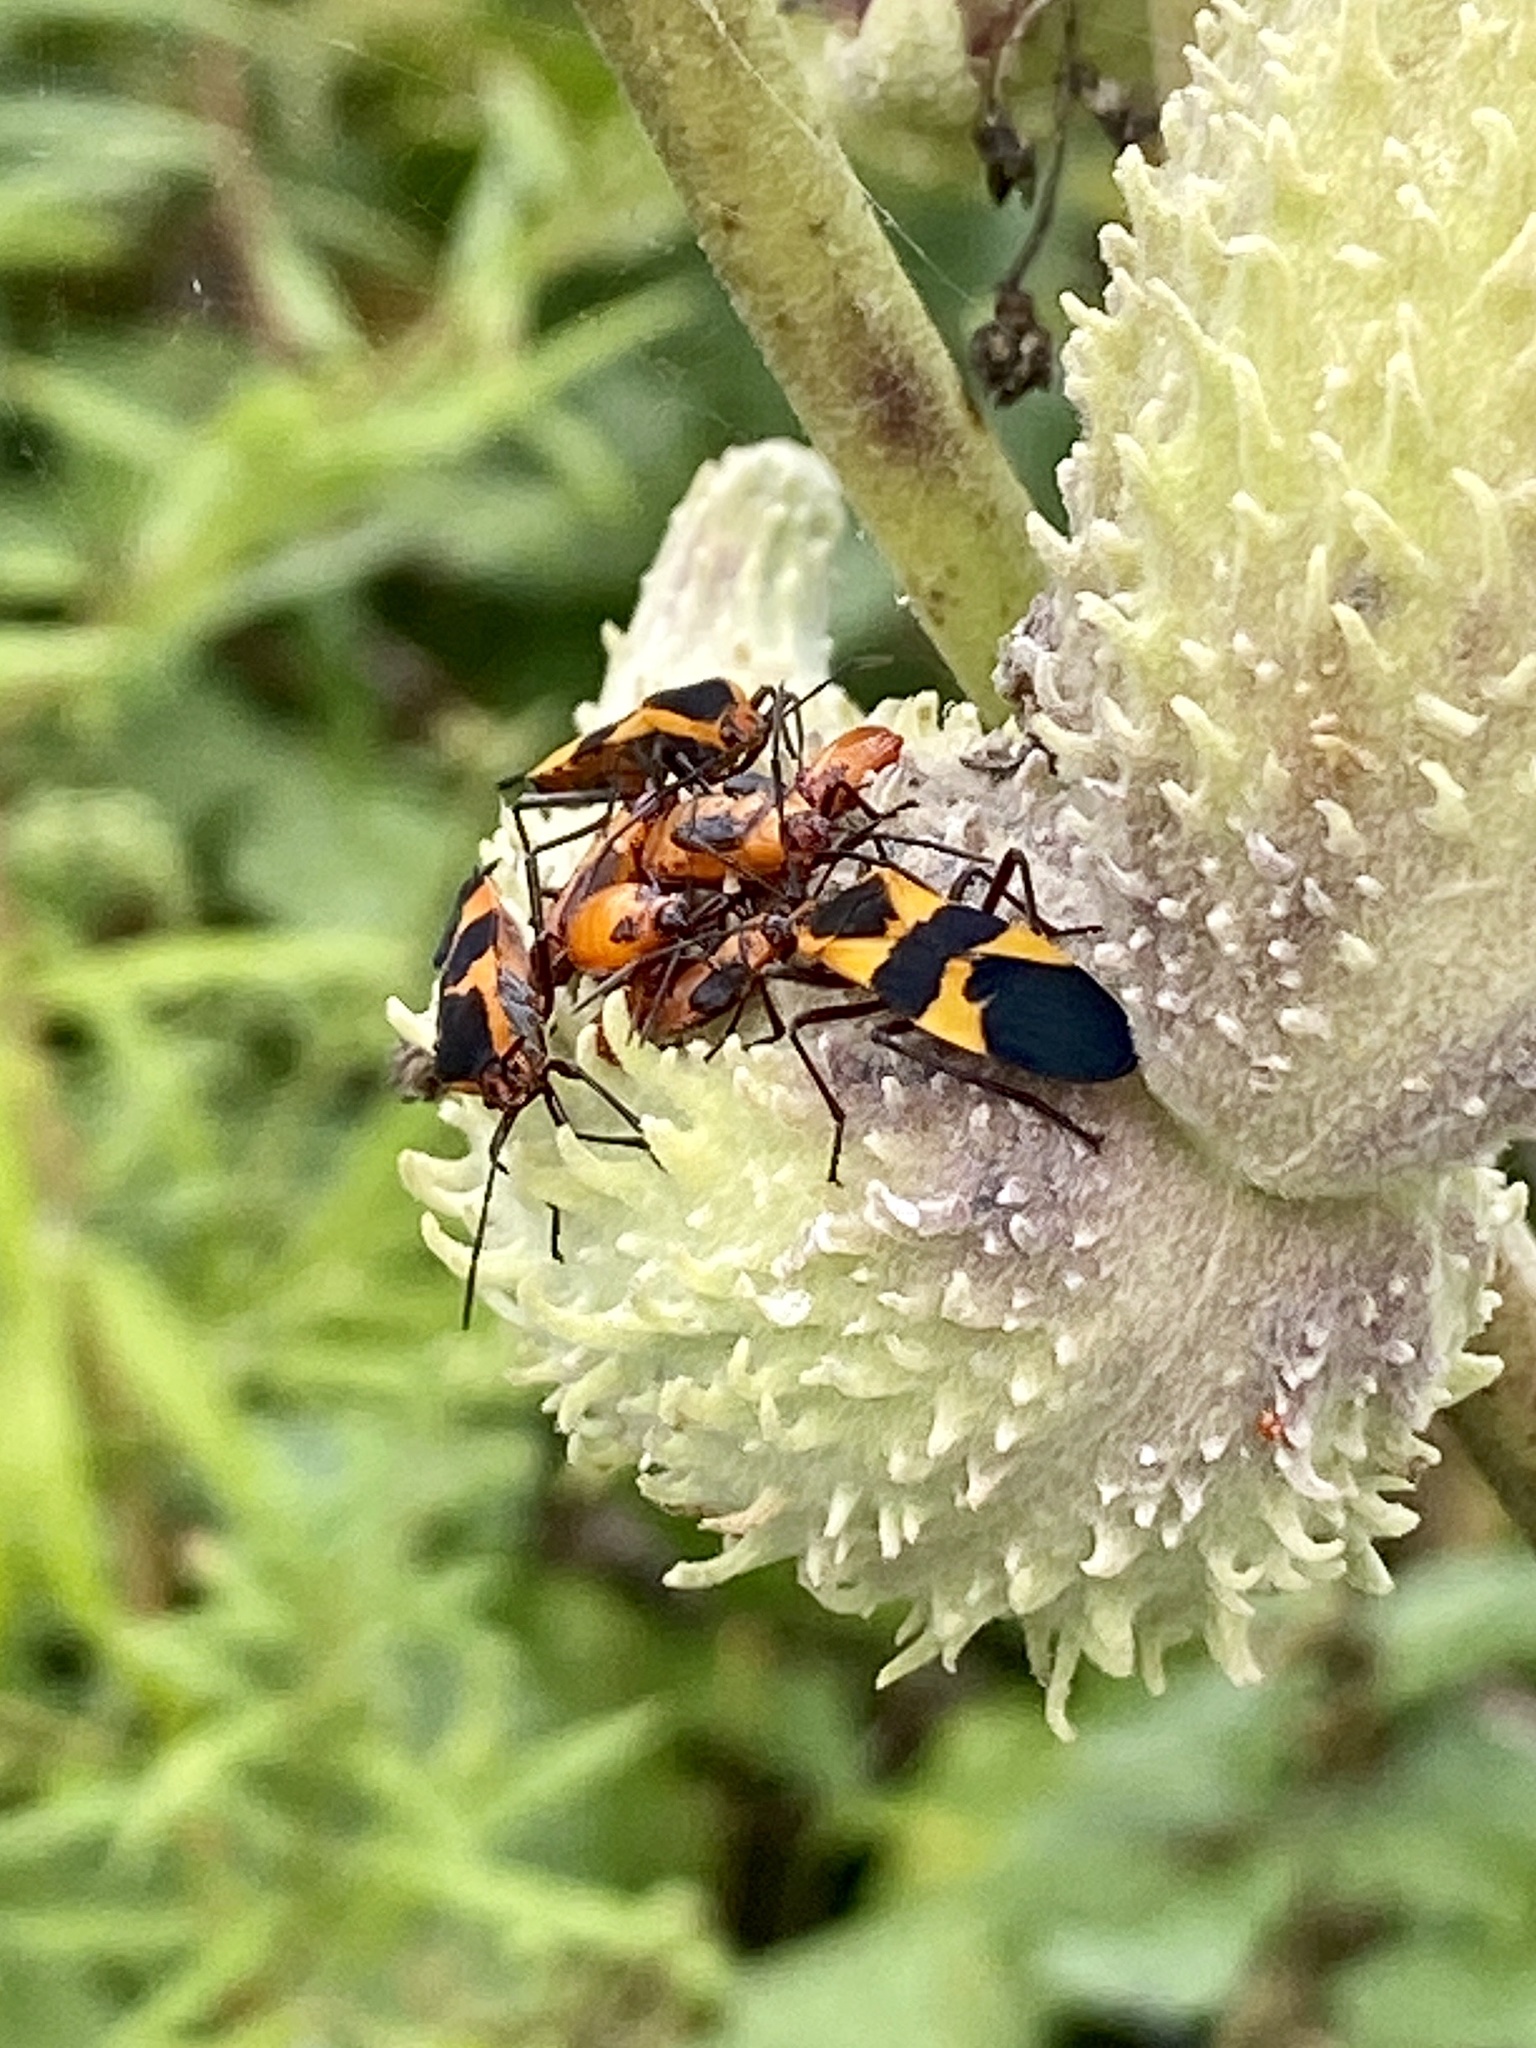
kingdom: Animalia
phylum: Arthropoda
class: Insecta
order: Hemiptera
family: Lygaeidae
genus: Oncopeltus
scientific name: Oncopeltus fasciatus
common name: Large milkweed bug
